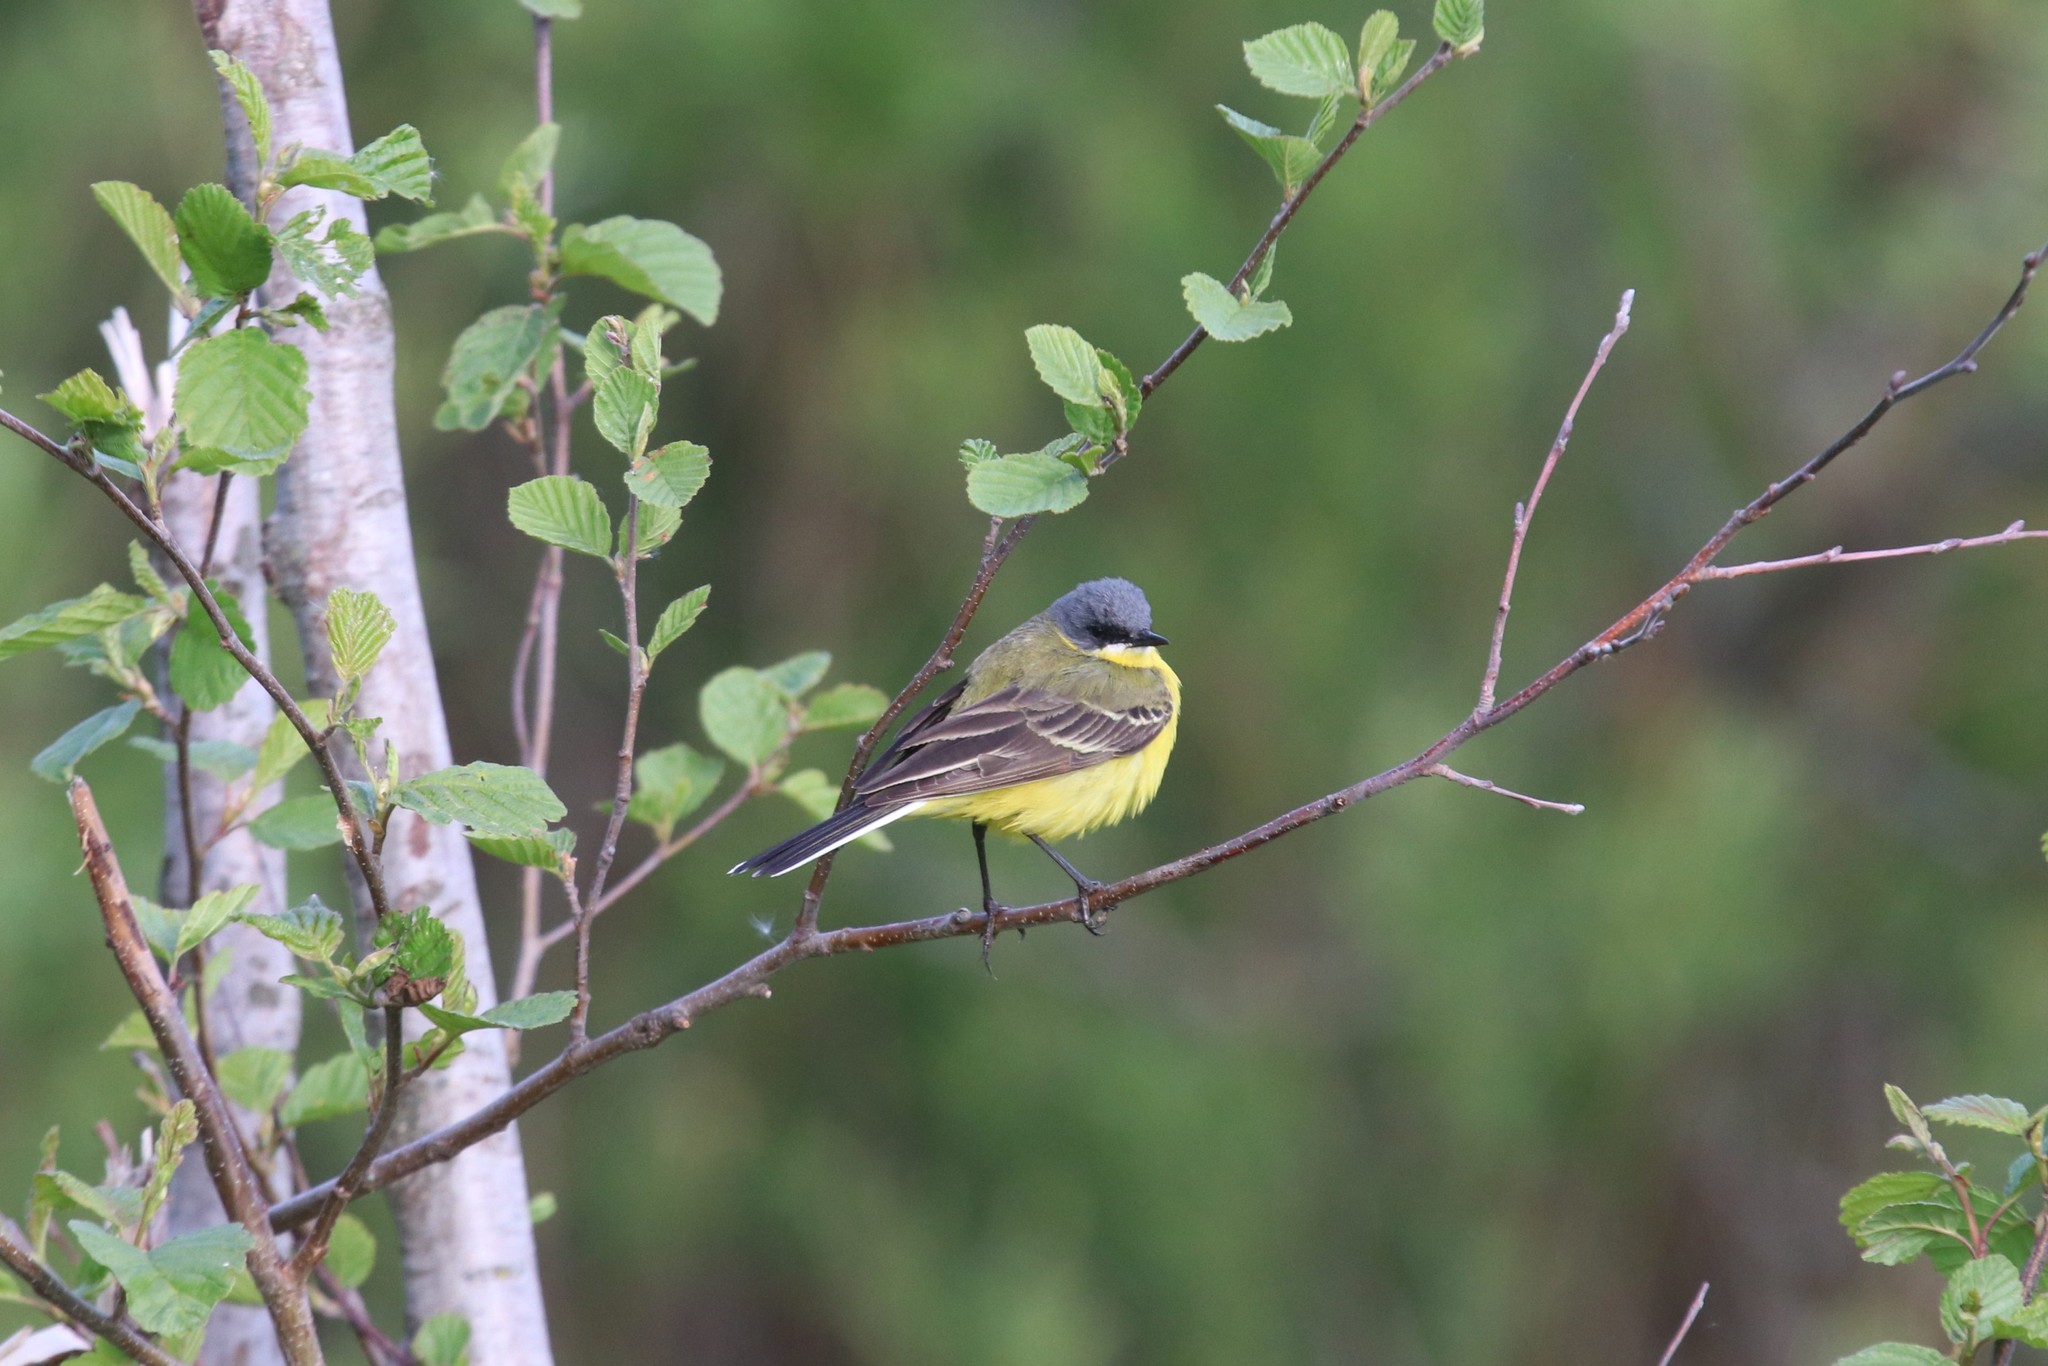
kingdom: Animalia
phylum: Chordata
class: Aves
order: Passeriformes
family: Motacillidae
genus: Motacilla
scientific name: Motacilla flava
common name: Western yellow wagtail
